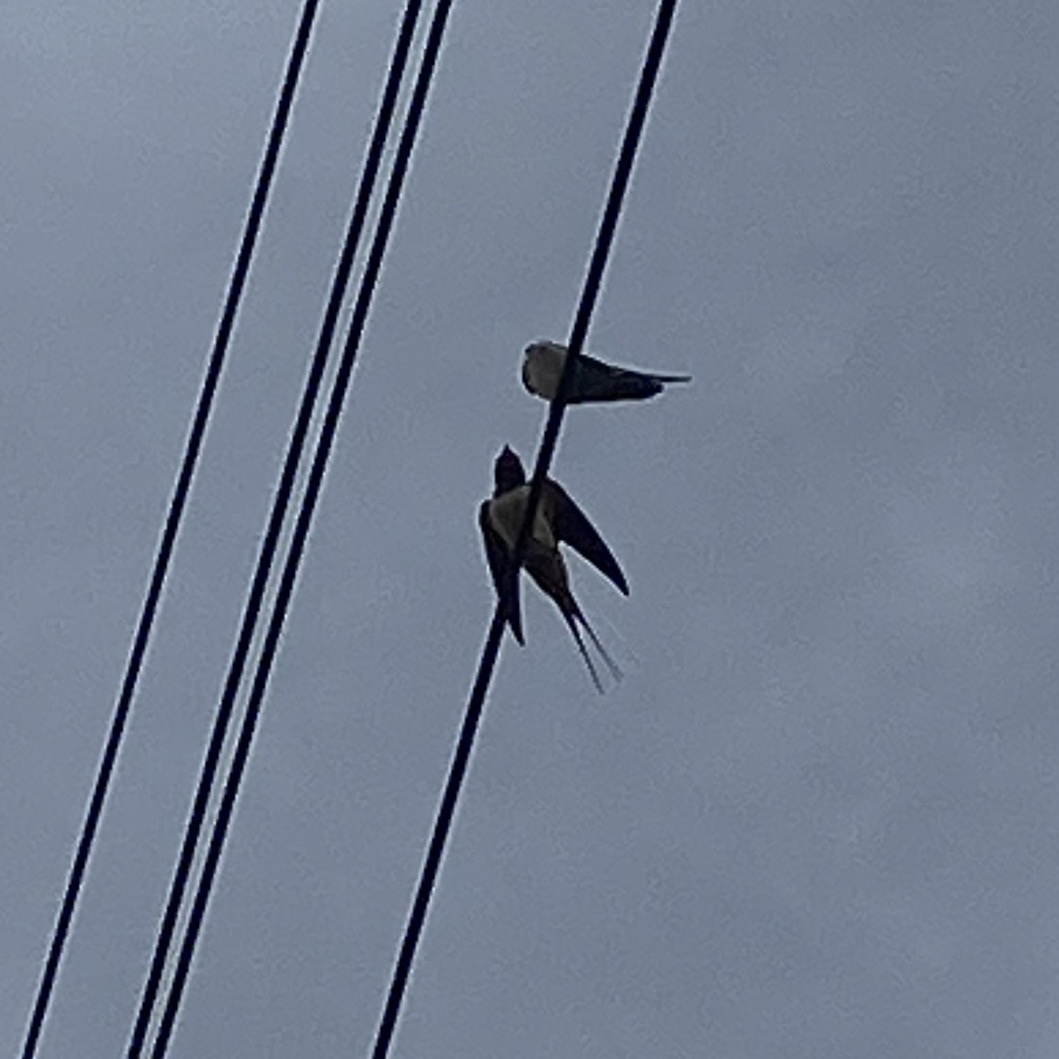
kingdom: Animalia
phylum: Chordata
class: Aves
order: Passeriformes
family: Hirundinidae
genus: Hirundo
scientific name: Hirundo rustica
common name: Barn swallow
